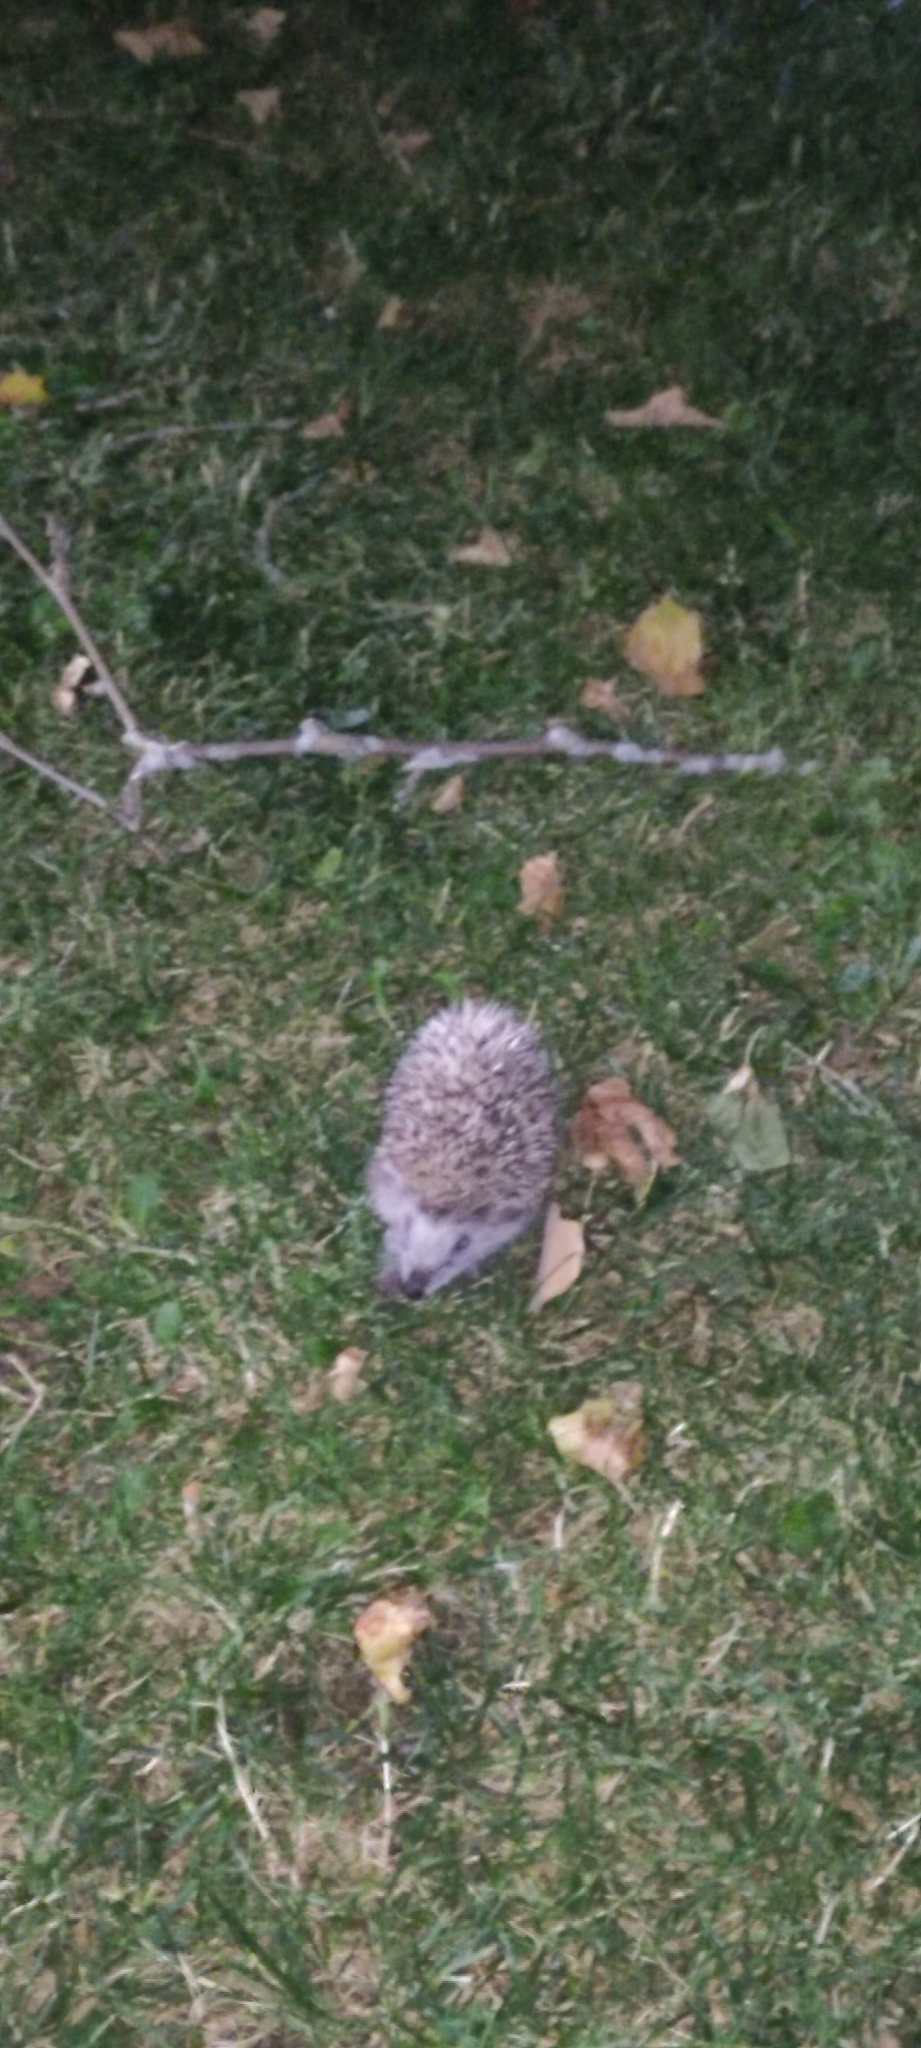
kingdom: Animalia
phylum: Chordata
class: Mammalia
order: Erinaceomorpha
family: Erinaceidae
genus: Erinaceus
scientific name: Erinaceus europaeus
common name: West european hedgehog
